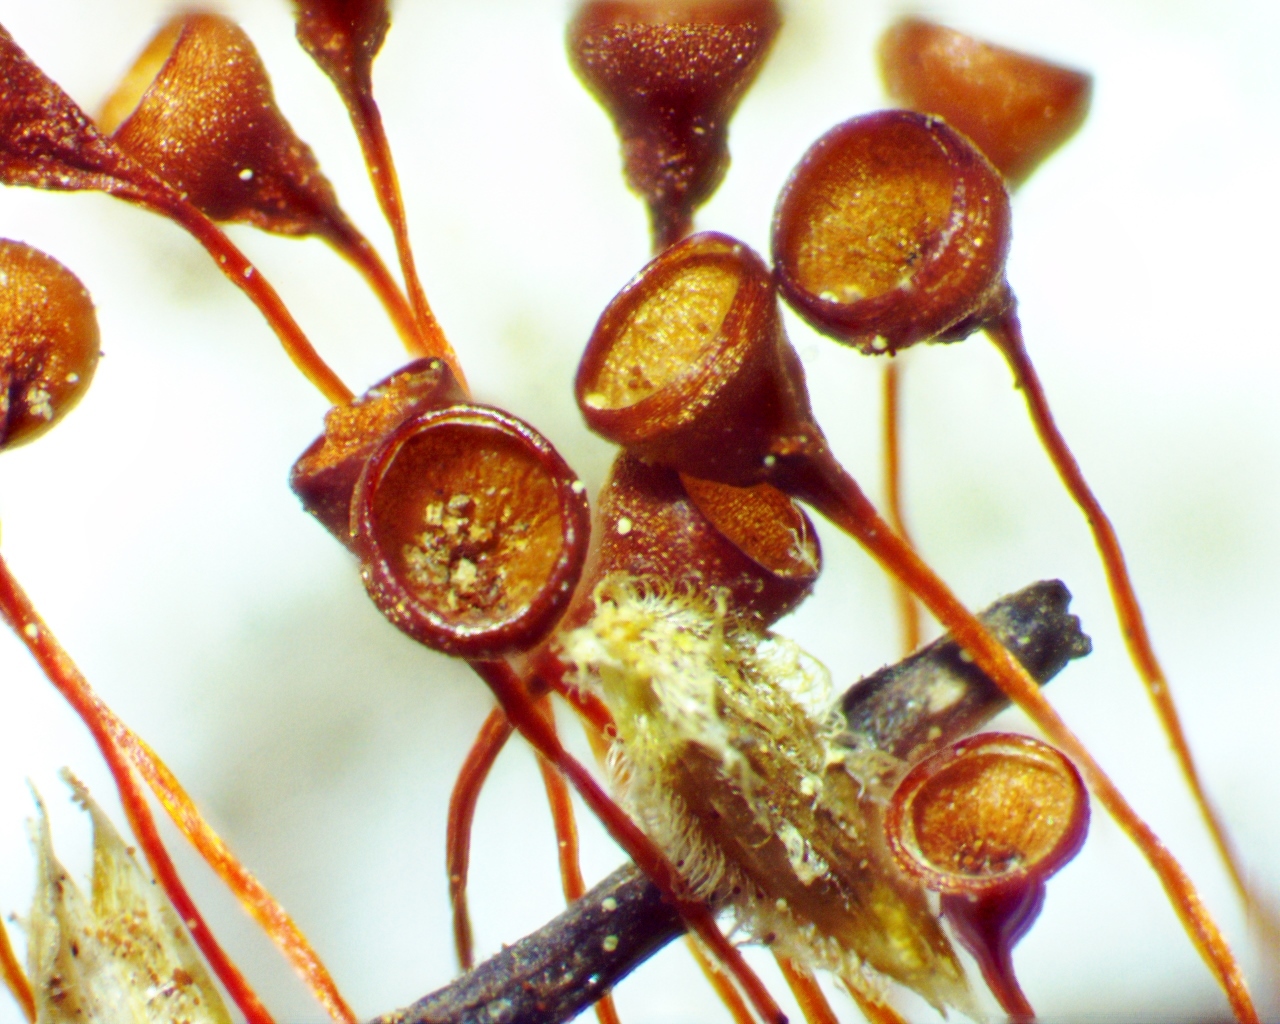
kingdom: Plantae
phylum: Bryophyta
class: Bryopsida
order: Funariales
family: Funariaceae
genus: Physcomitrium
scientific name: Physcomitrium pyriforme
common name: Common bladder-moss
